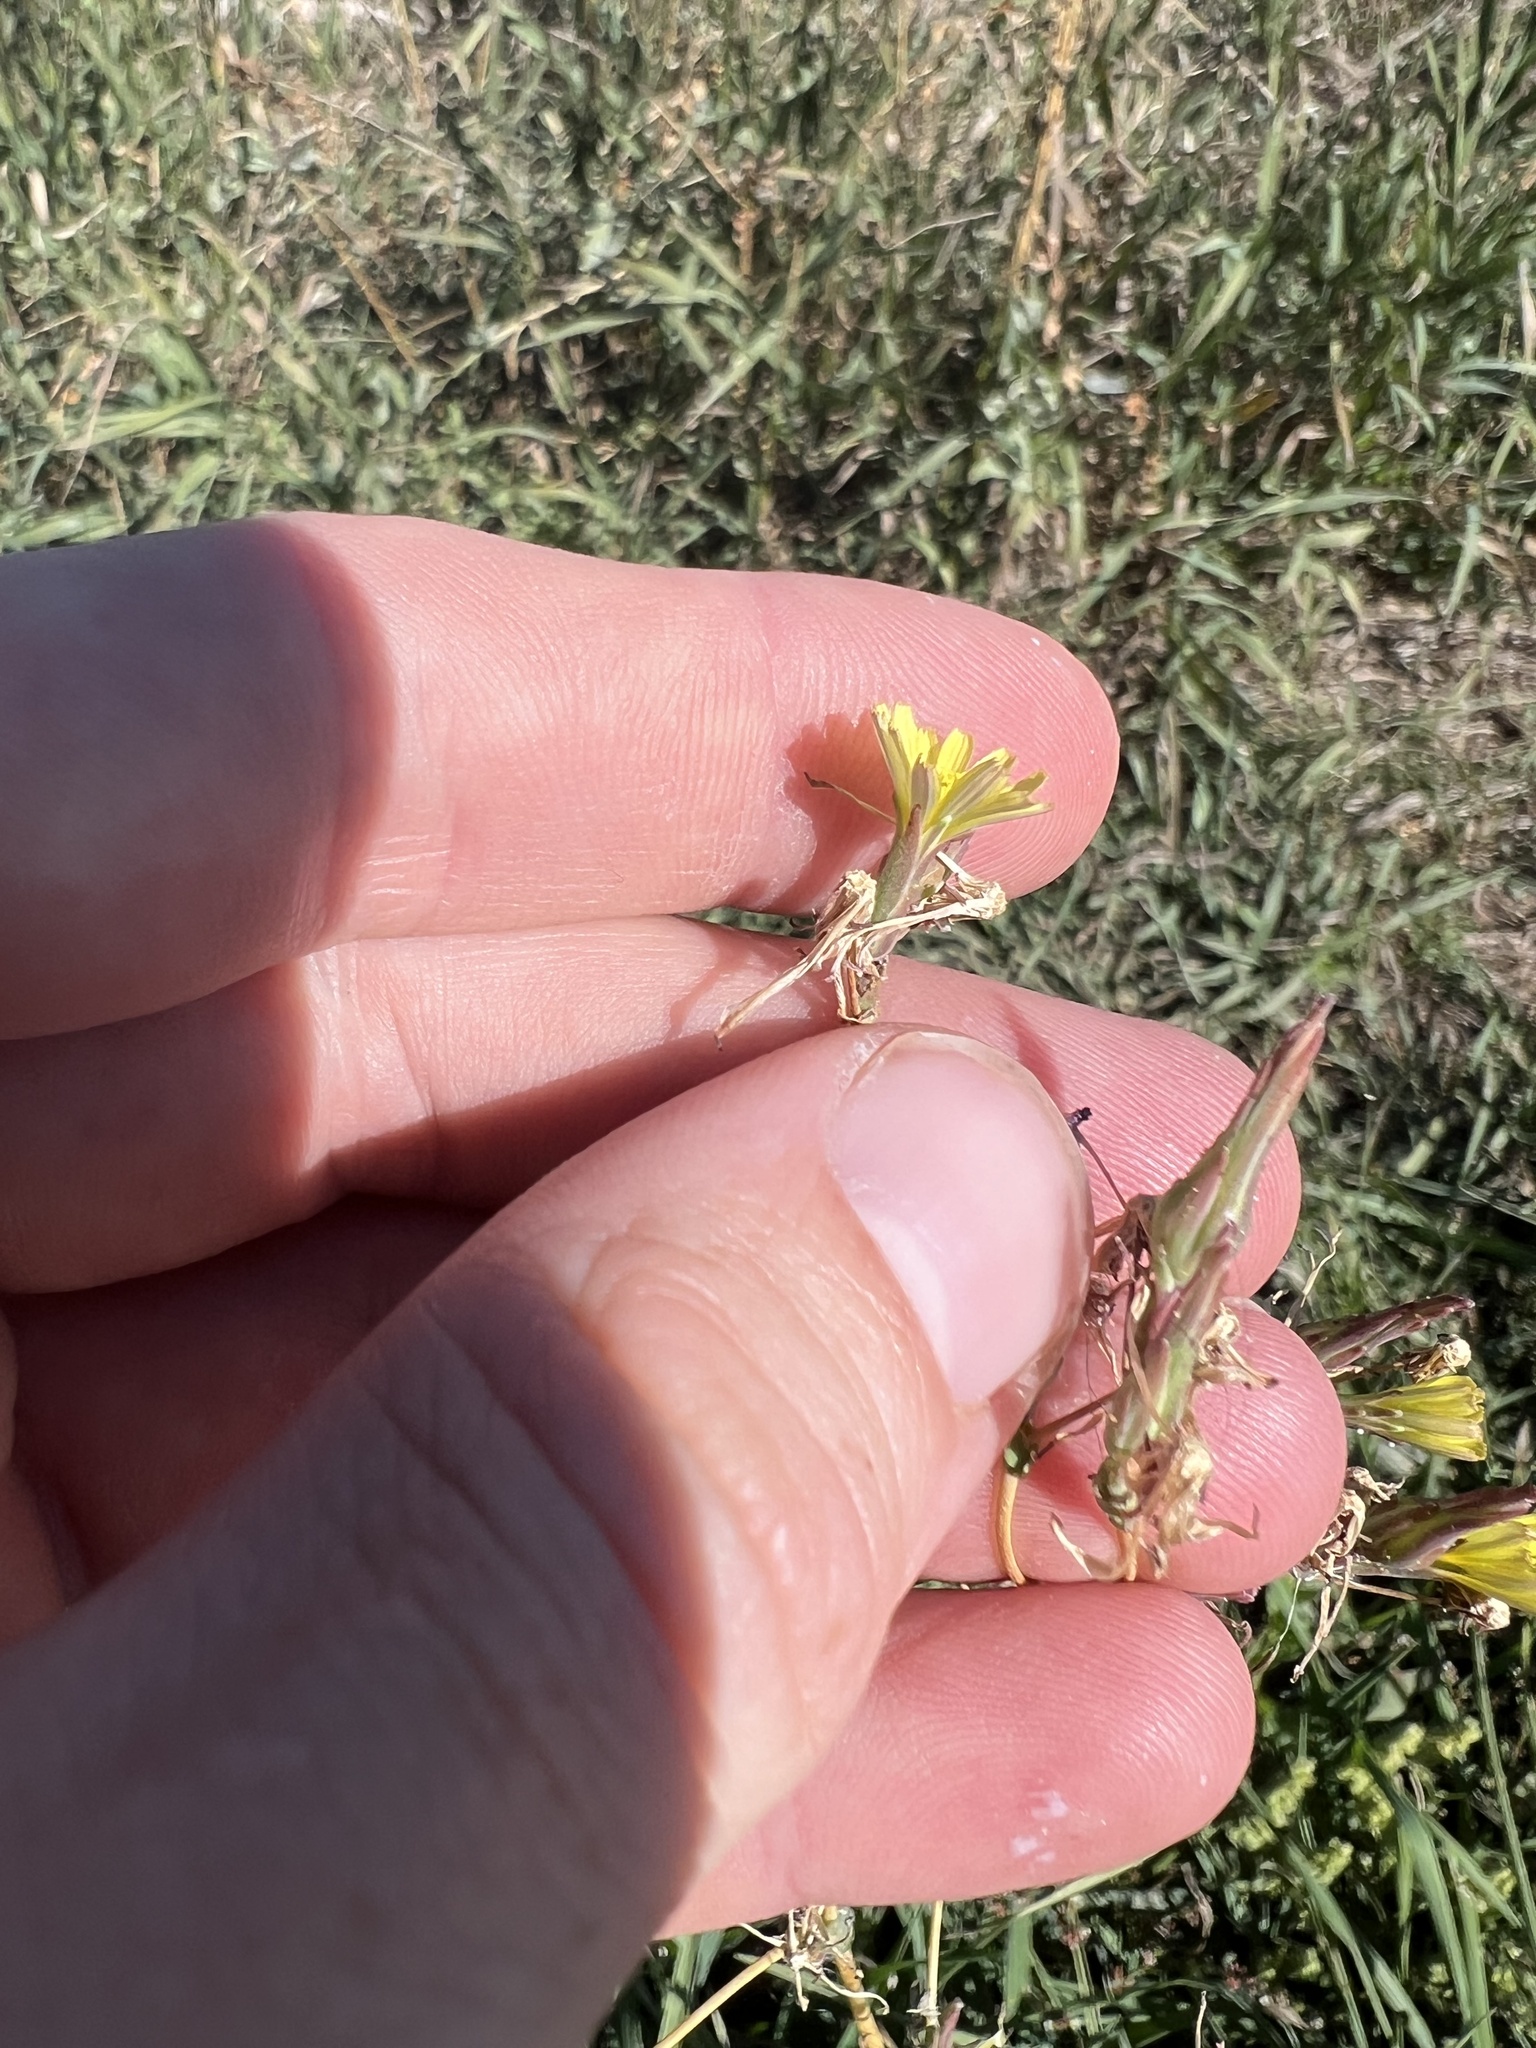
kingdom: Plantae
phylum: Tracheophyta
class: Magnoliopsida
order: Asterales
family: Asteraceae
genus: Lactuca
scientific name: Lactuca serriola
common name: Prickly lettuce
